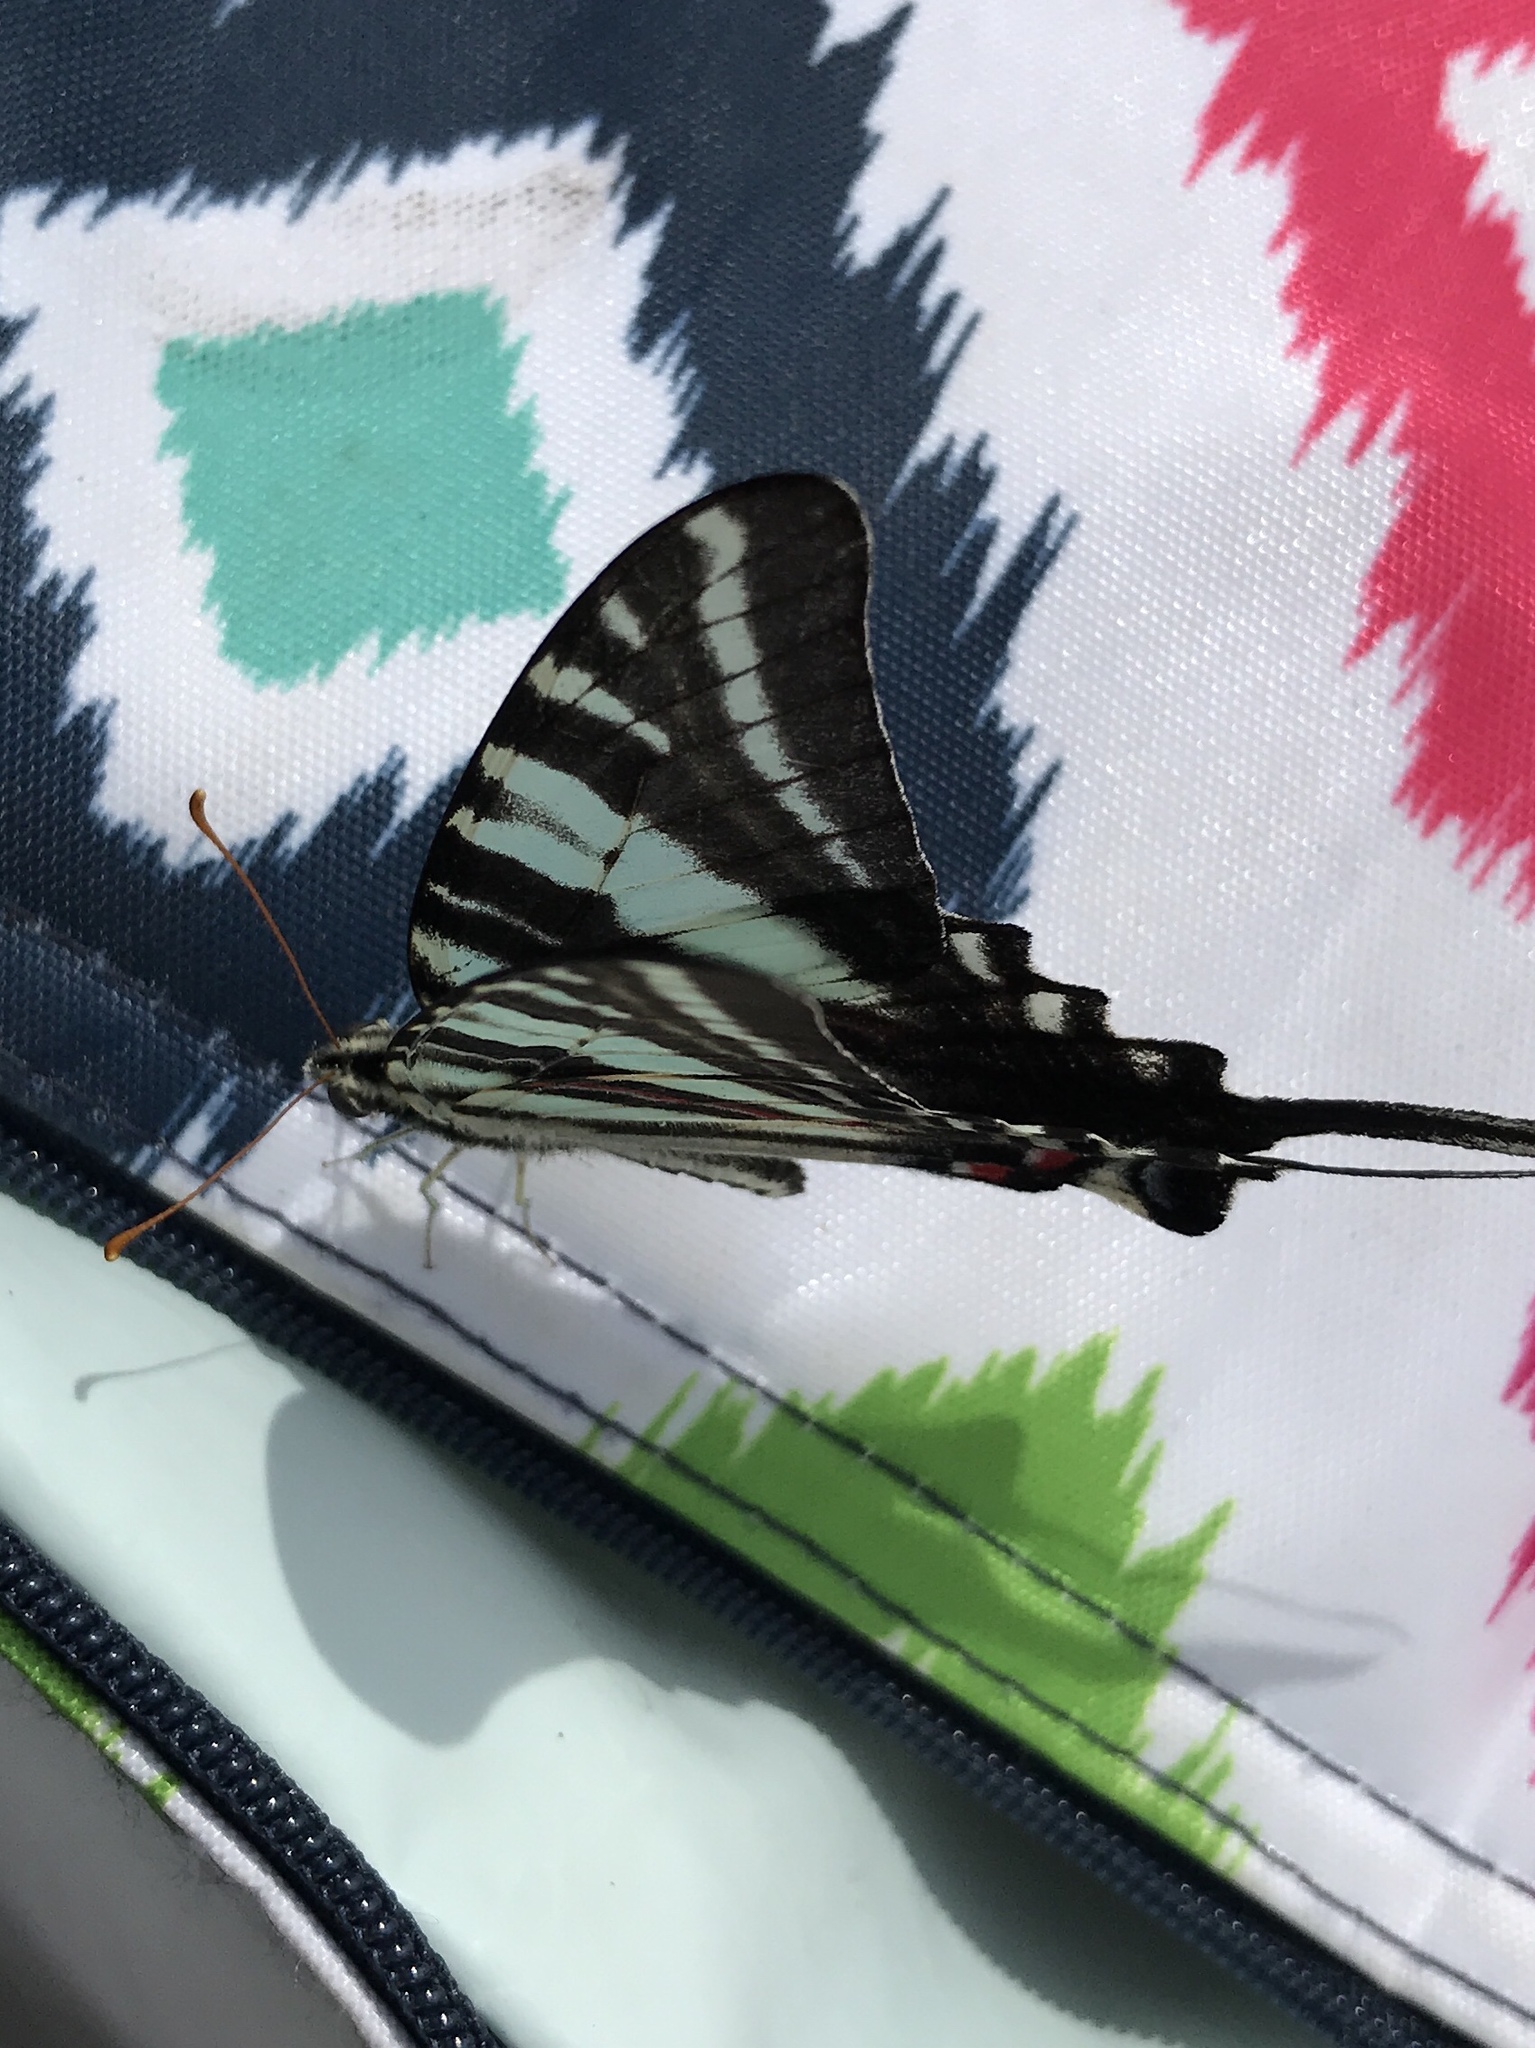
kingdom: Animalia
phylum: Arthropoda
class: Insecta
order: Lepidoptera
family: Papilionidae
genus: Protographium
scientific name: Protographium marcellus
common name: Zebra swallowtail
